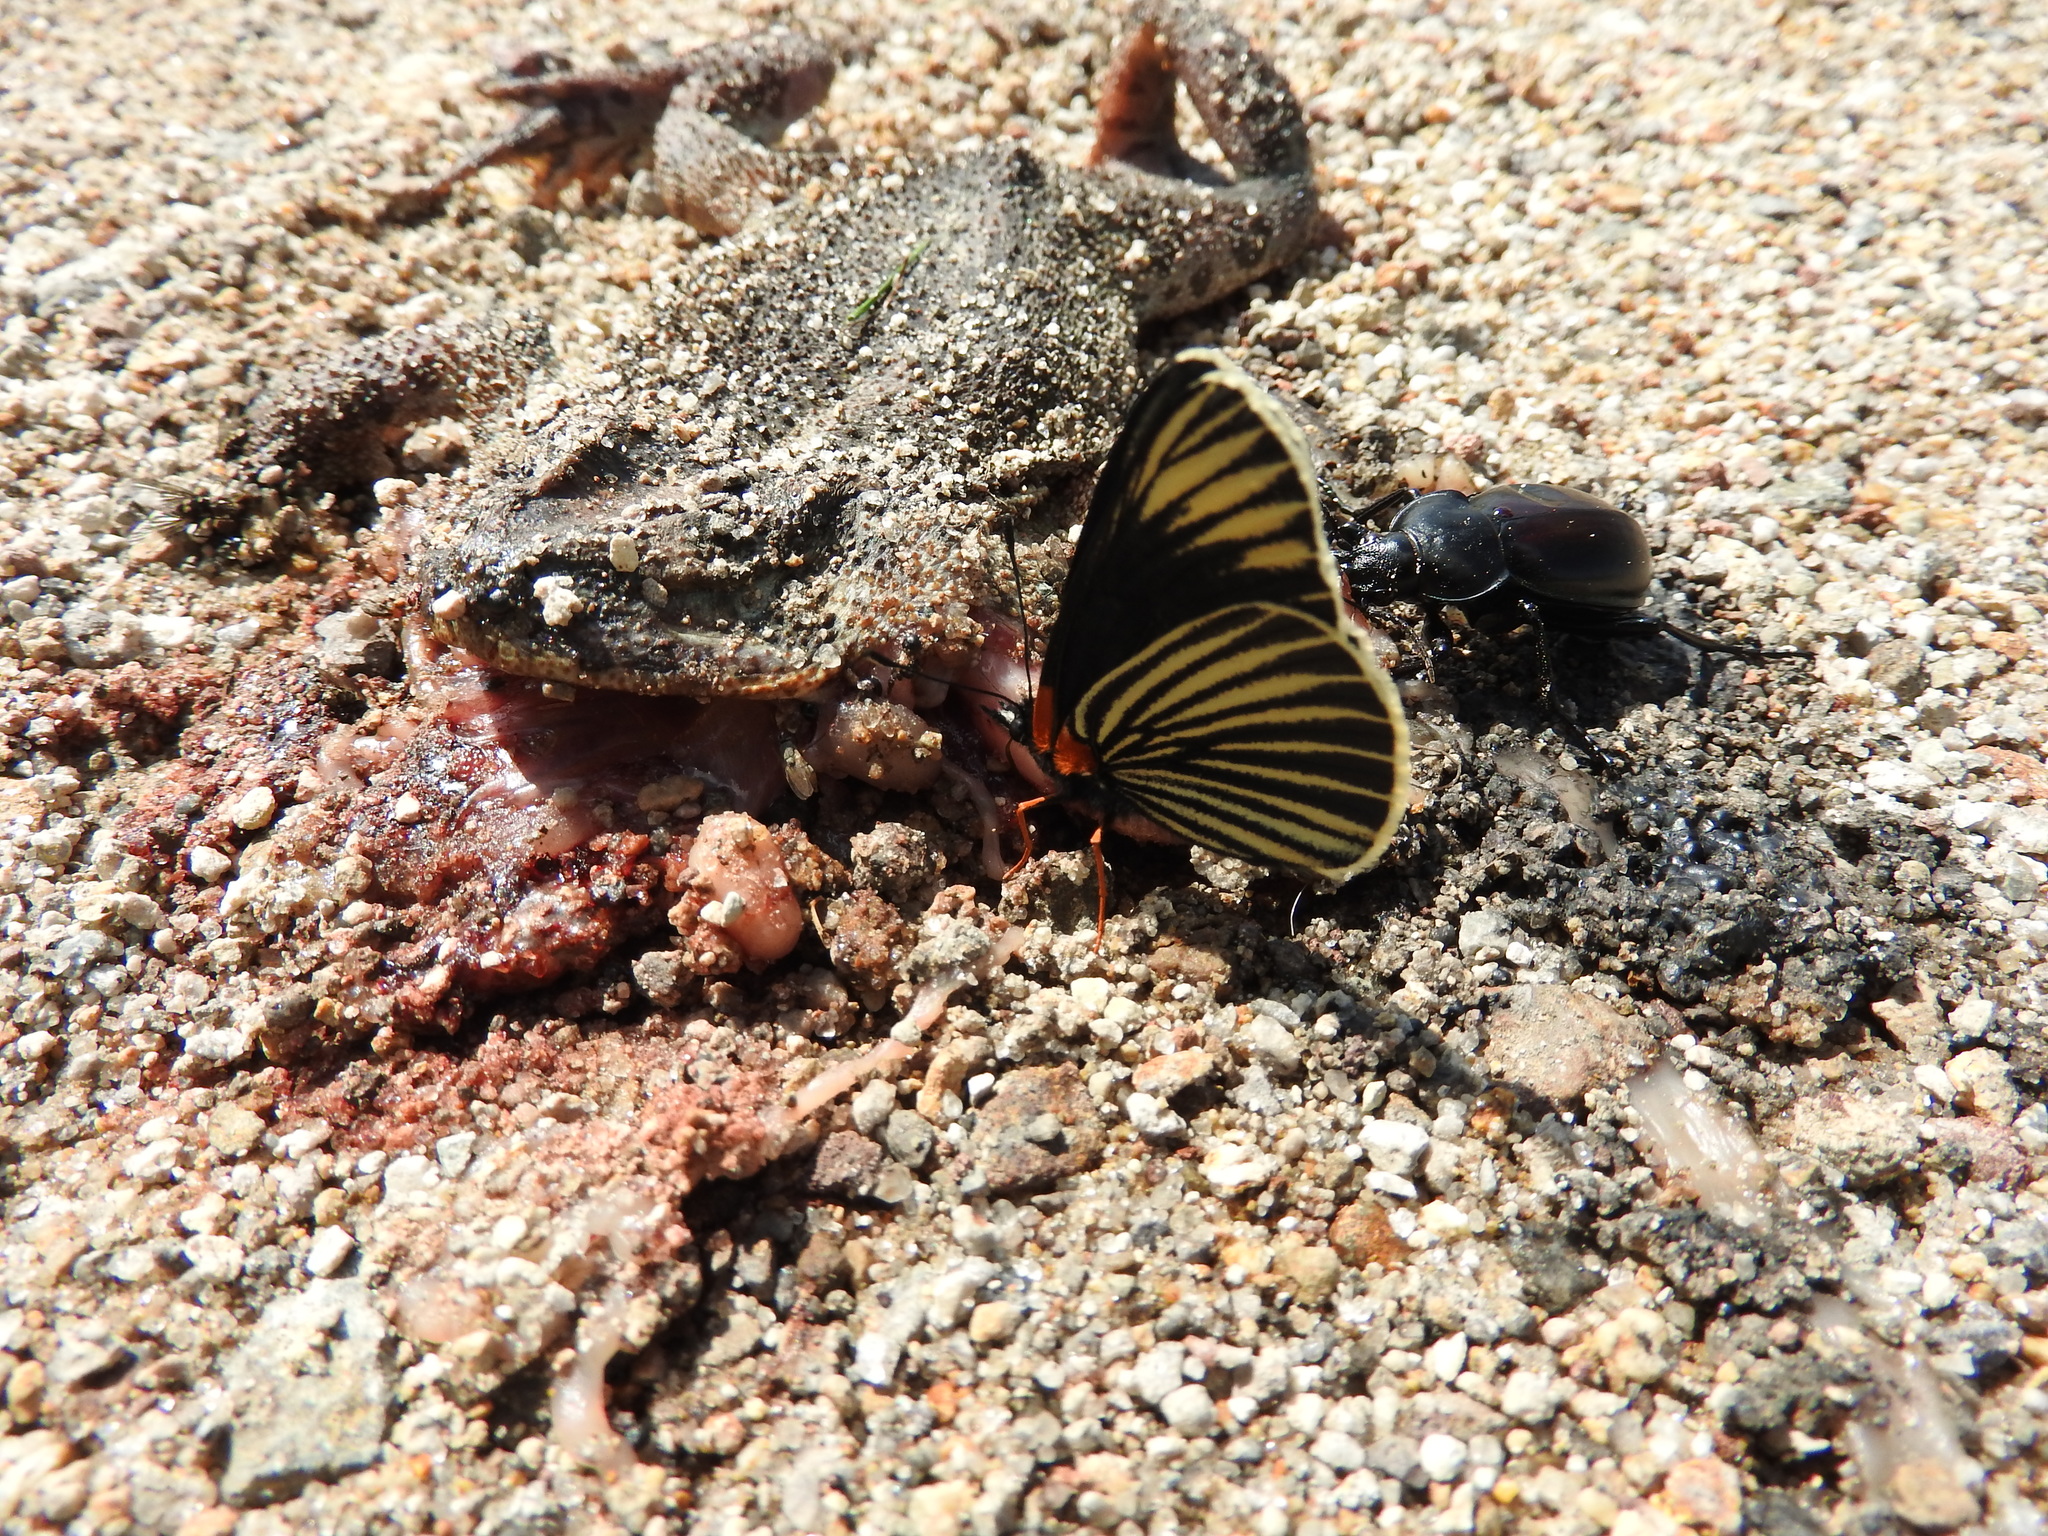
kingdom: Animalia
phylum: Arthropoda
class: Insecta
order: Lepidoptera
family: Nymphalidae
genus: Chlosyne
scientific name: Chlosyne ehrenbergii
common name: White-rayed patch
